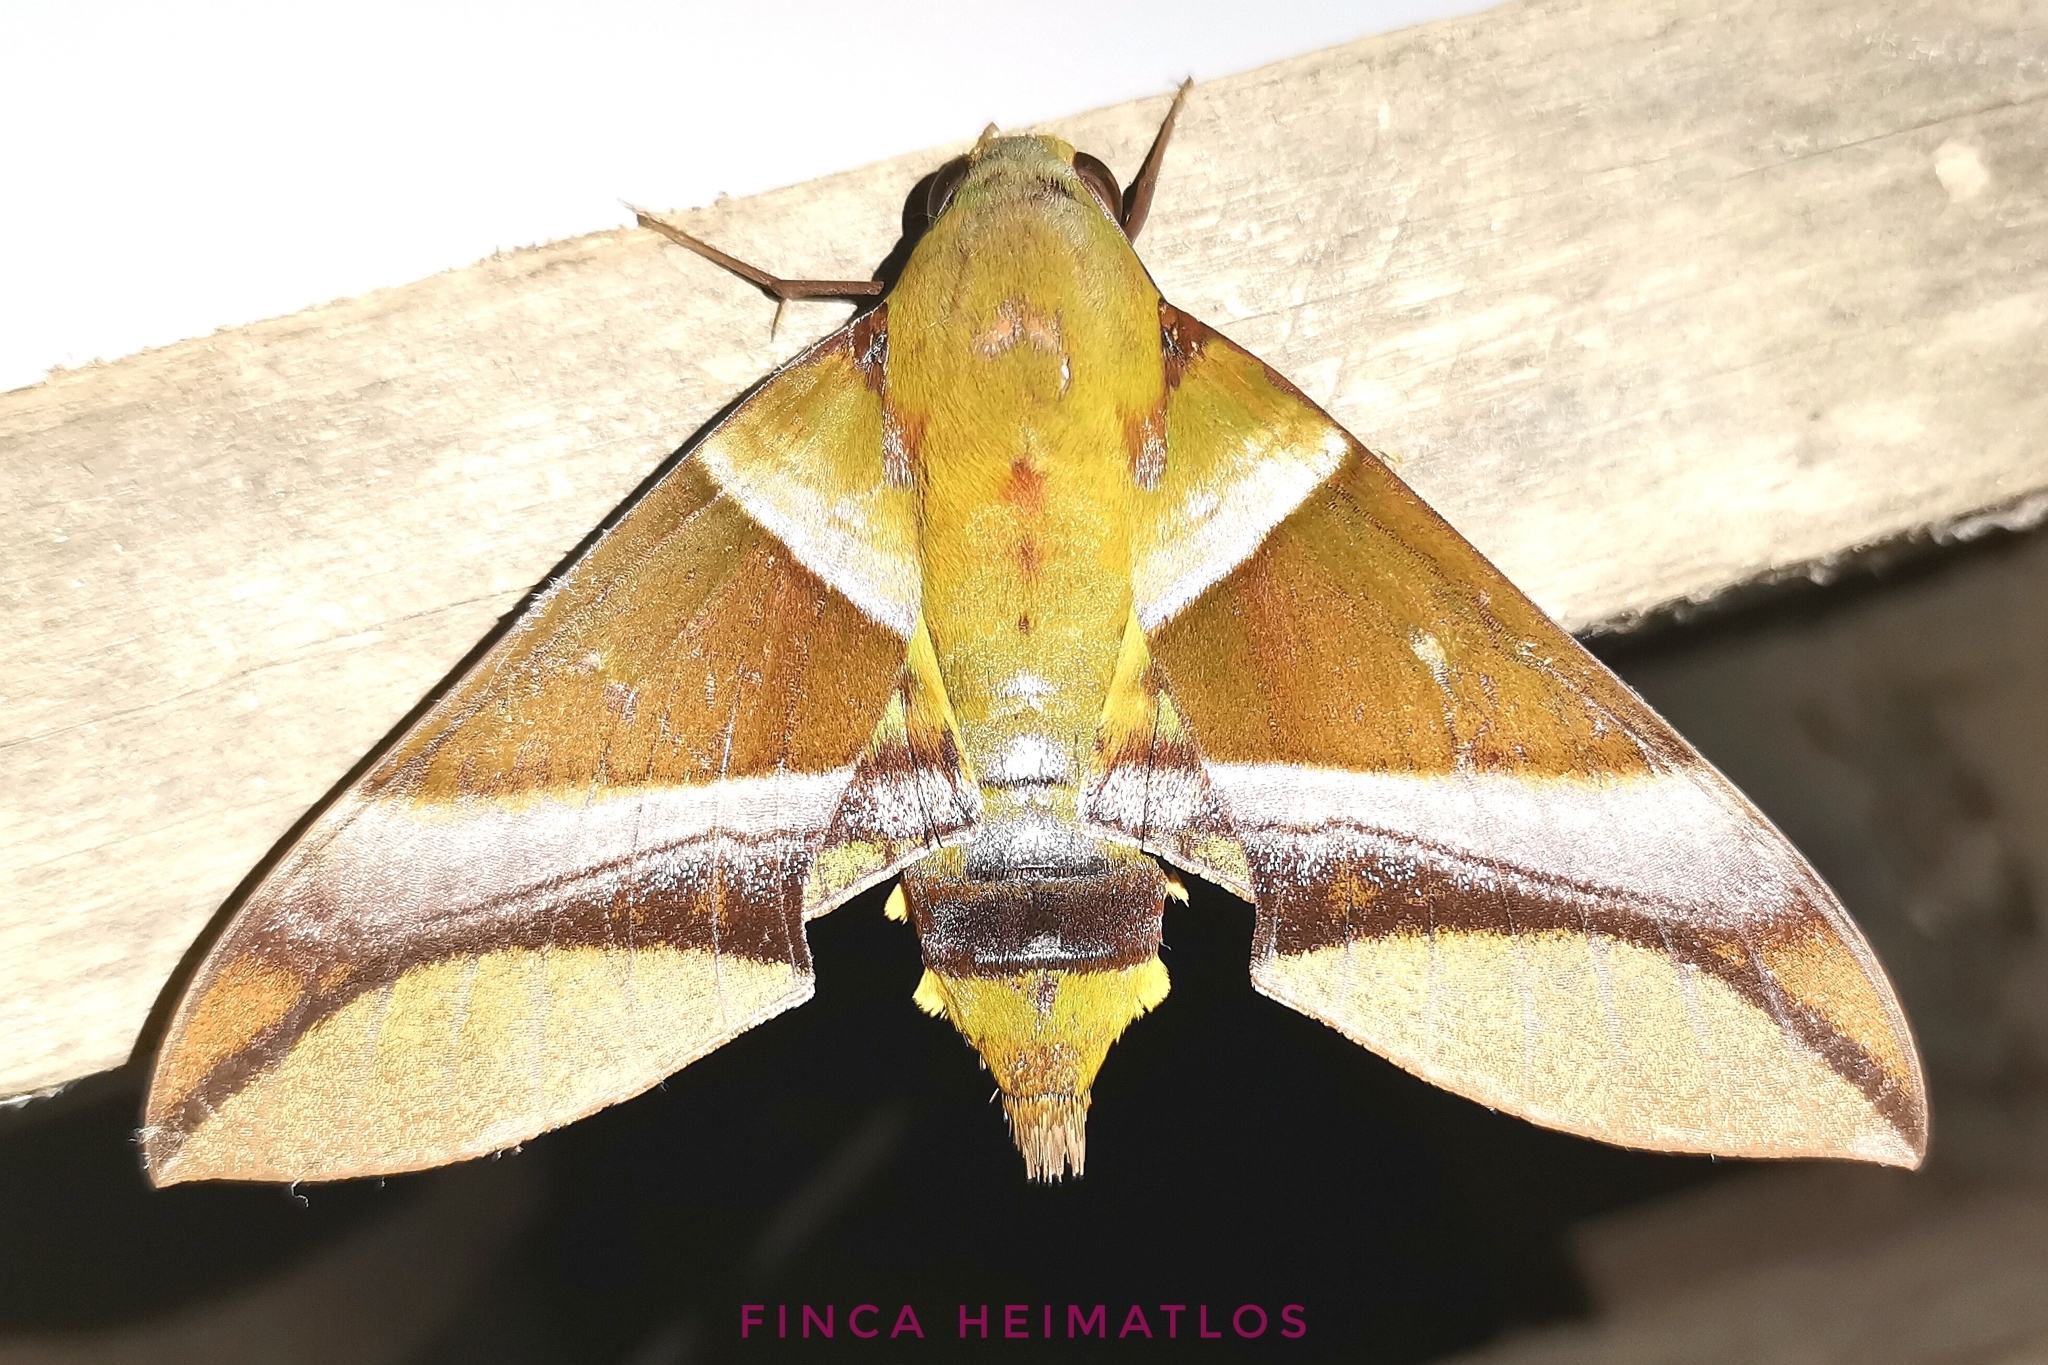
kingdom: Animalia
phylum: Arthropoda
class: Insecta
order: Lepidoptera
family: Sphingidae
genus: Oryba
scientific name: Oryba kadeni
